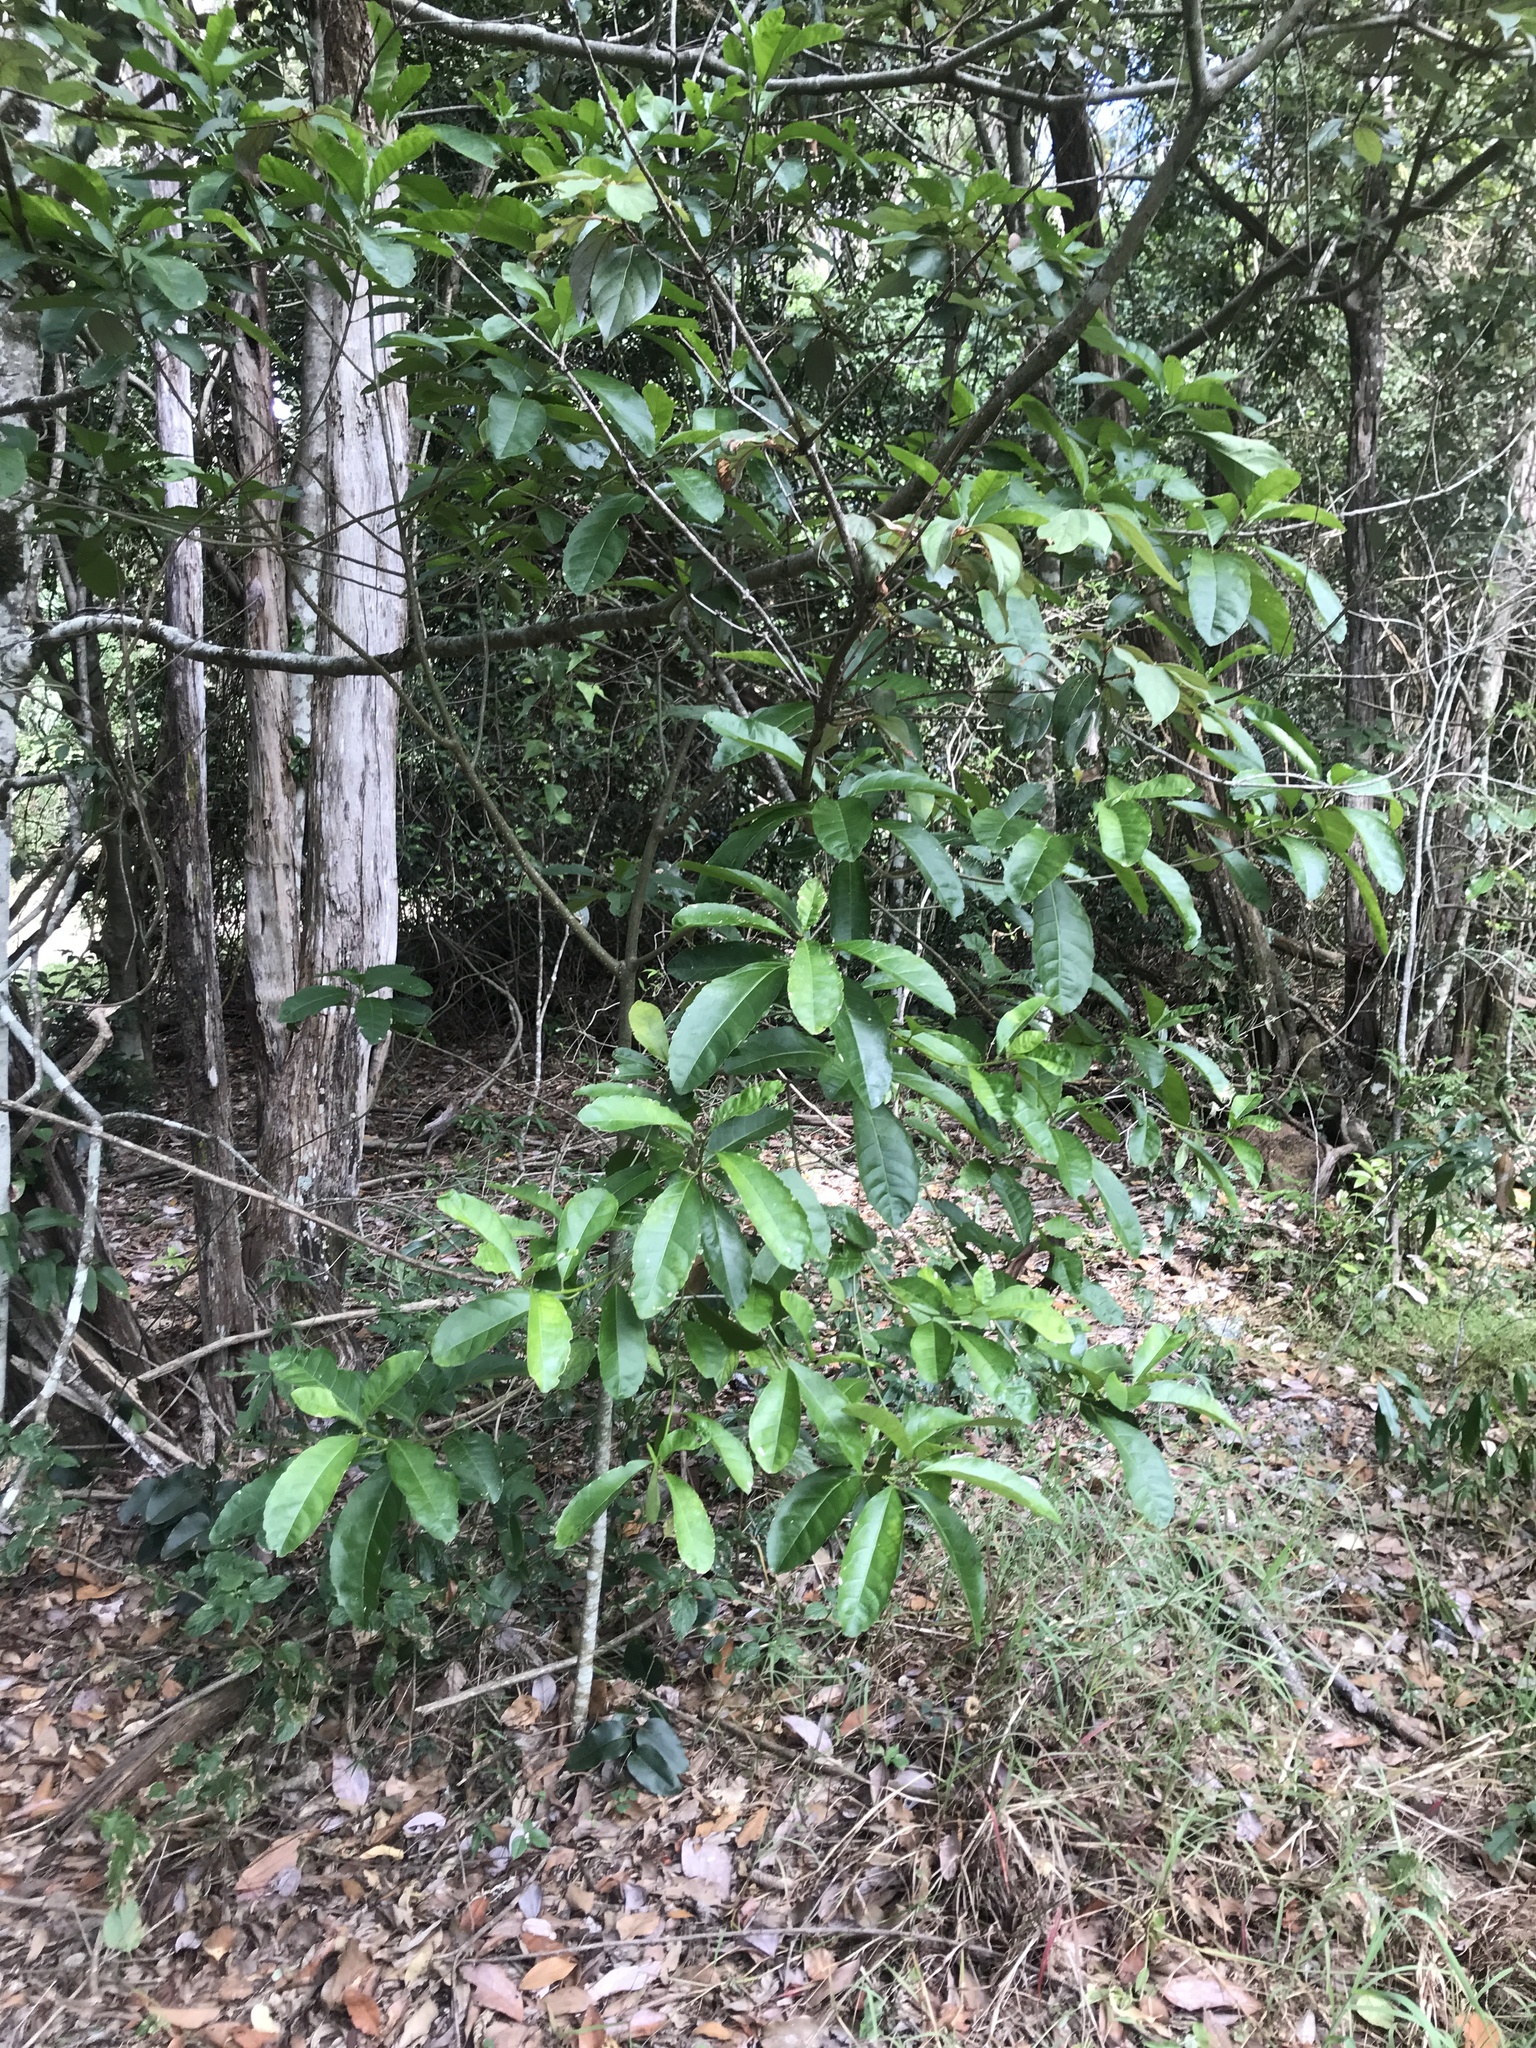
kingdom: Plantae
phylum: Tracheophyta
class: Magnoliopsida
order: Malpighiales
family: Euphorbiaceae
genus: Claoxylon
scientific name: Claoxylon australe
